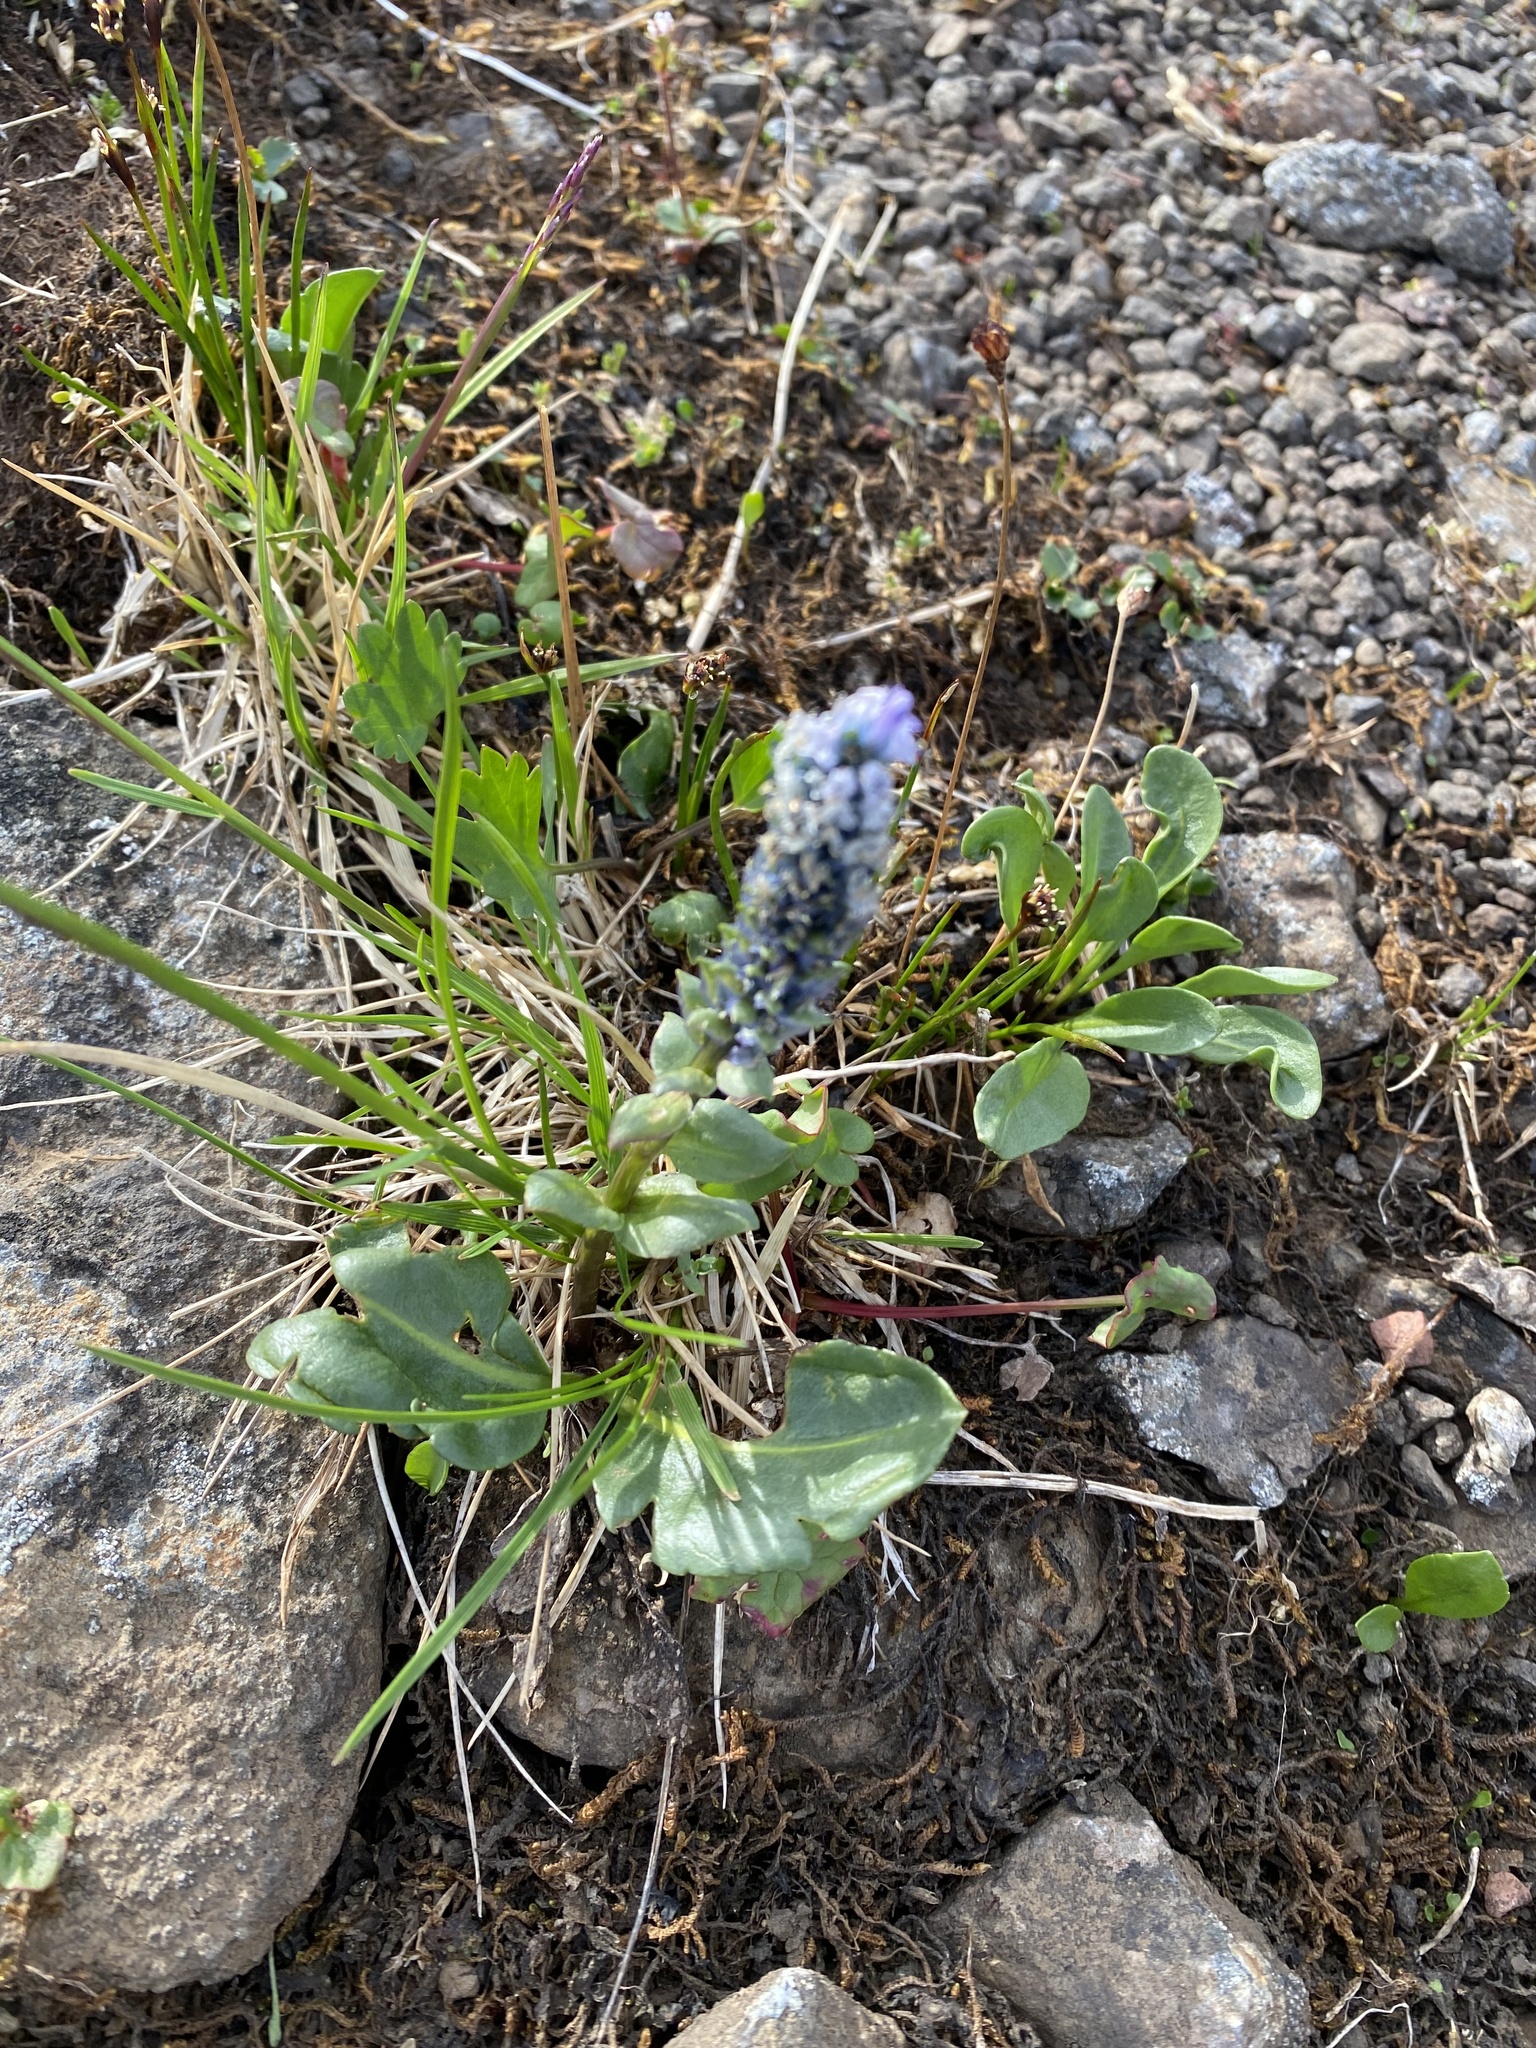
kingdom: Plantae
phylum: Tracheophyta
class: Magnoliopsida
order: Lamiales
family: Plantaginaceae
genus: Lagotis
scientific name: Lagotis glauca
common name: Glaucous weaselsnout
